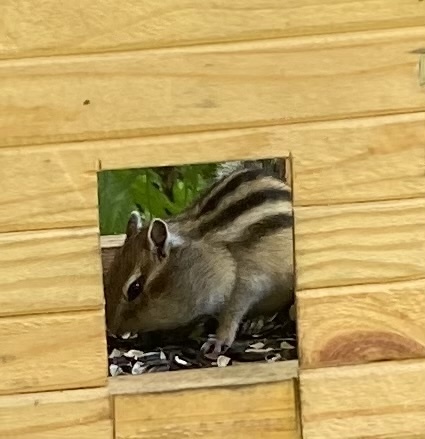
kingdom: Animalia
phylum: Chordata
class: Mammalia
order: Rodentia
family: Sciuridae
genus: Tamias
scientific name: Tamias sibiricus
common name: Siberian chipmunk
